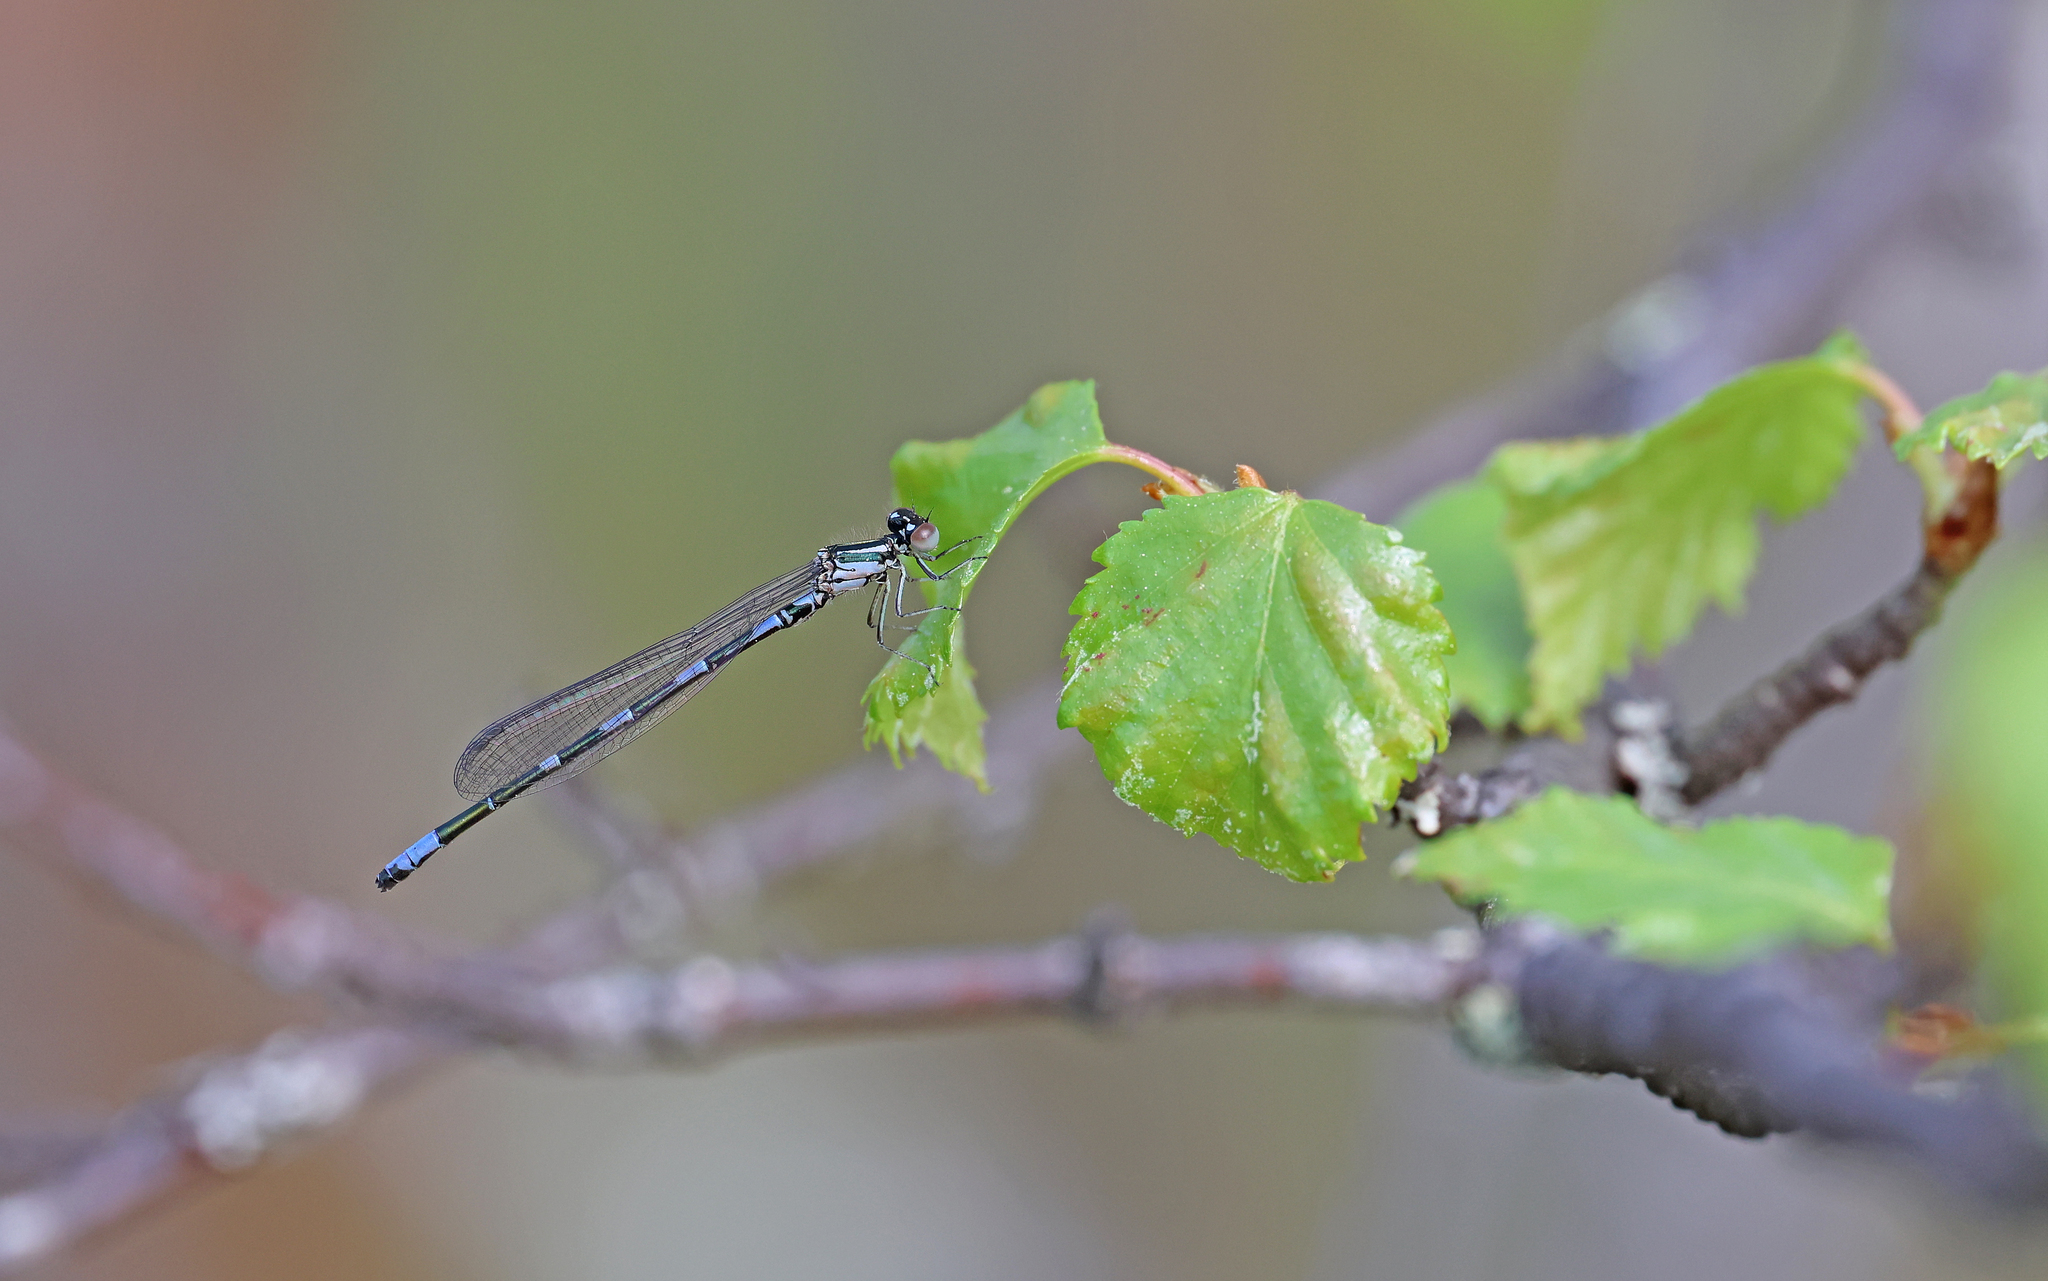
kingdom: Animalia
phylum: Arthropoda
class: Insecta
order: Odonata
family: Coenagrionidae
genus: Coenagrion
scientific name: Coenagrion johanssoni
